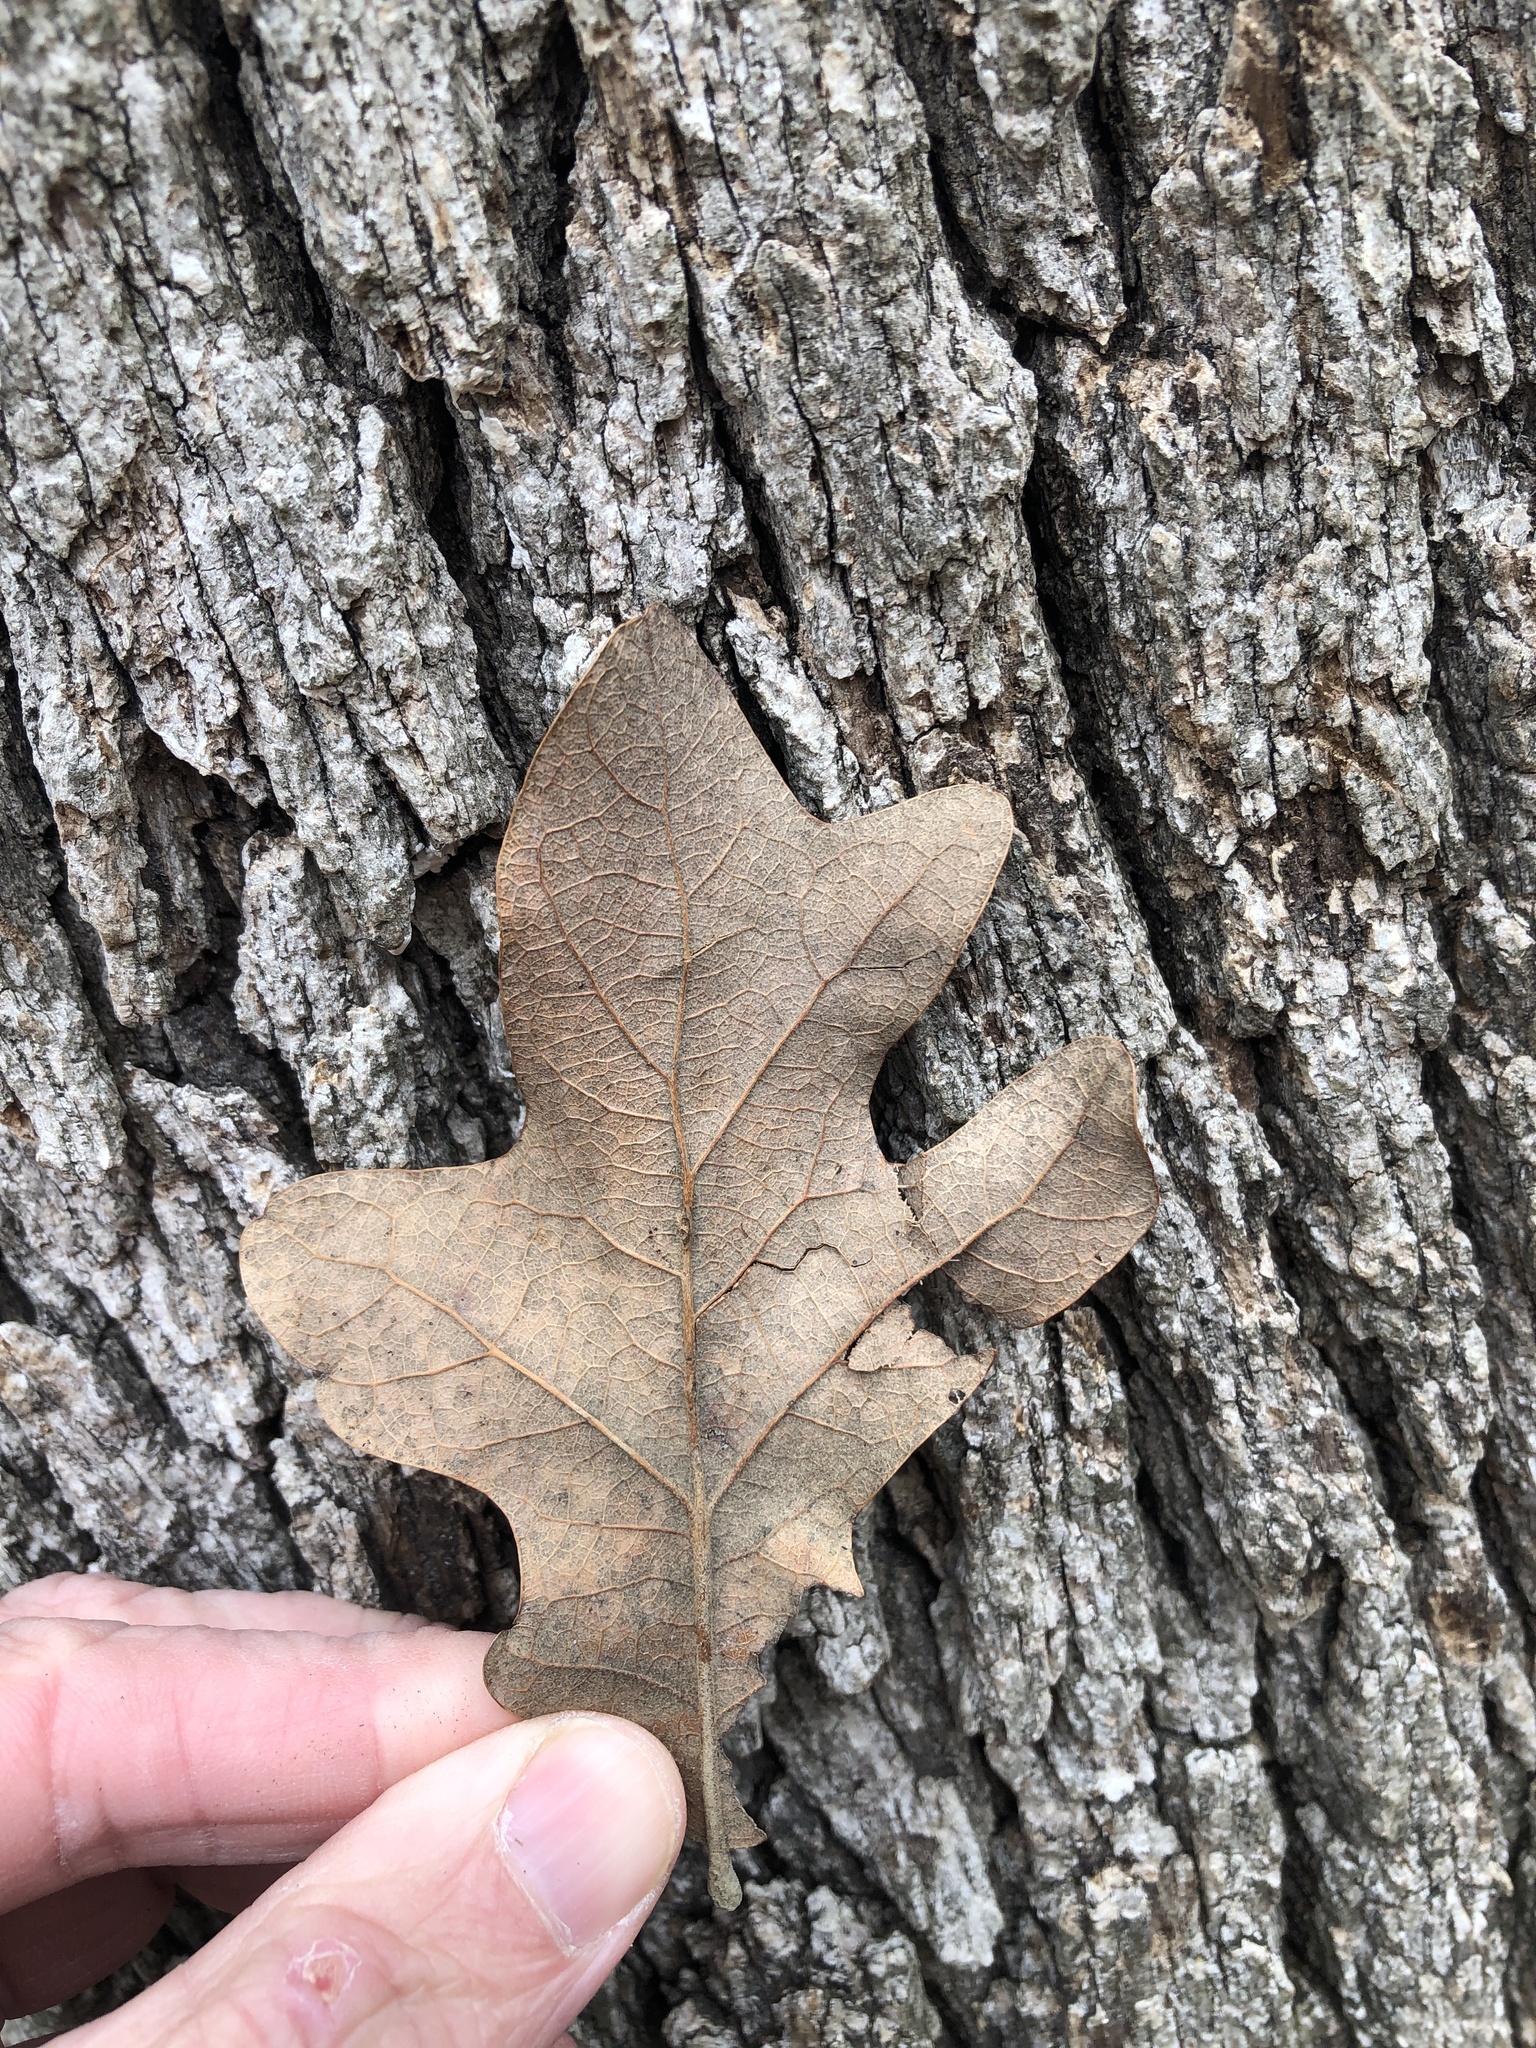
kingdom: Plantae
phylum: Tracheophyta
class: Magnoliopsida
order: Fagales
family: Fagaceae
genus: Quercus
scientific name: Quercus stellata
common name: Post oak
